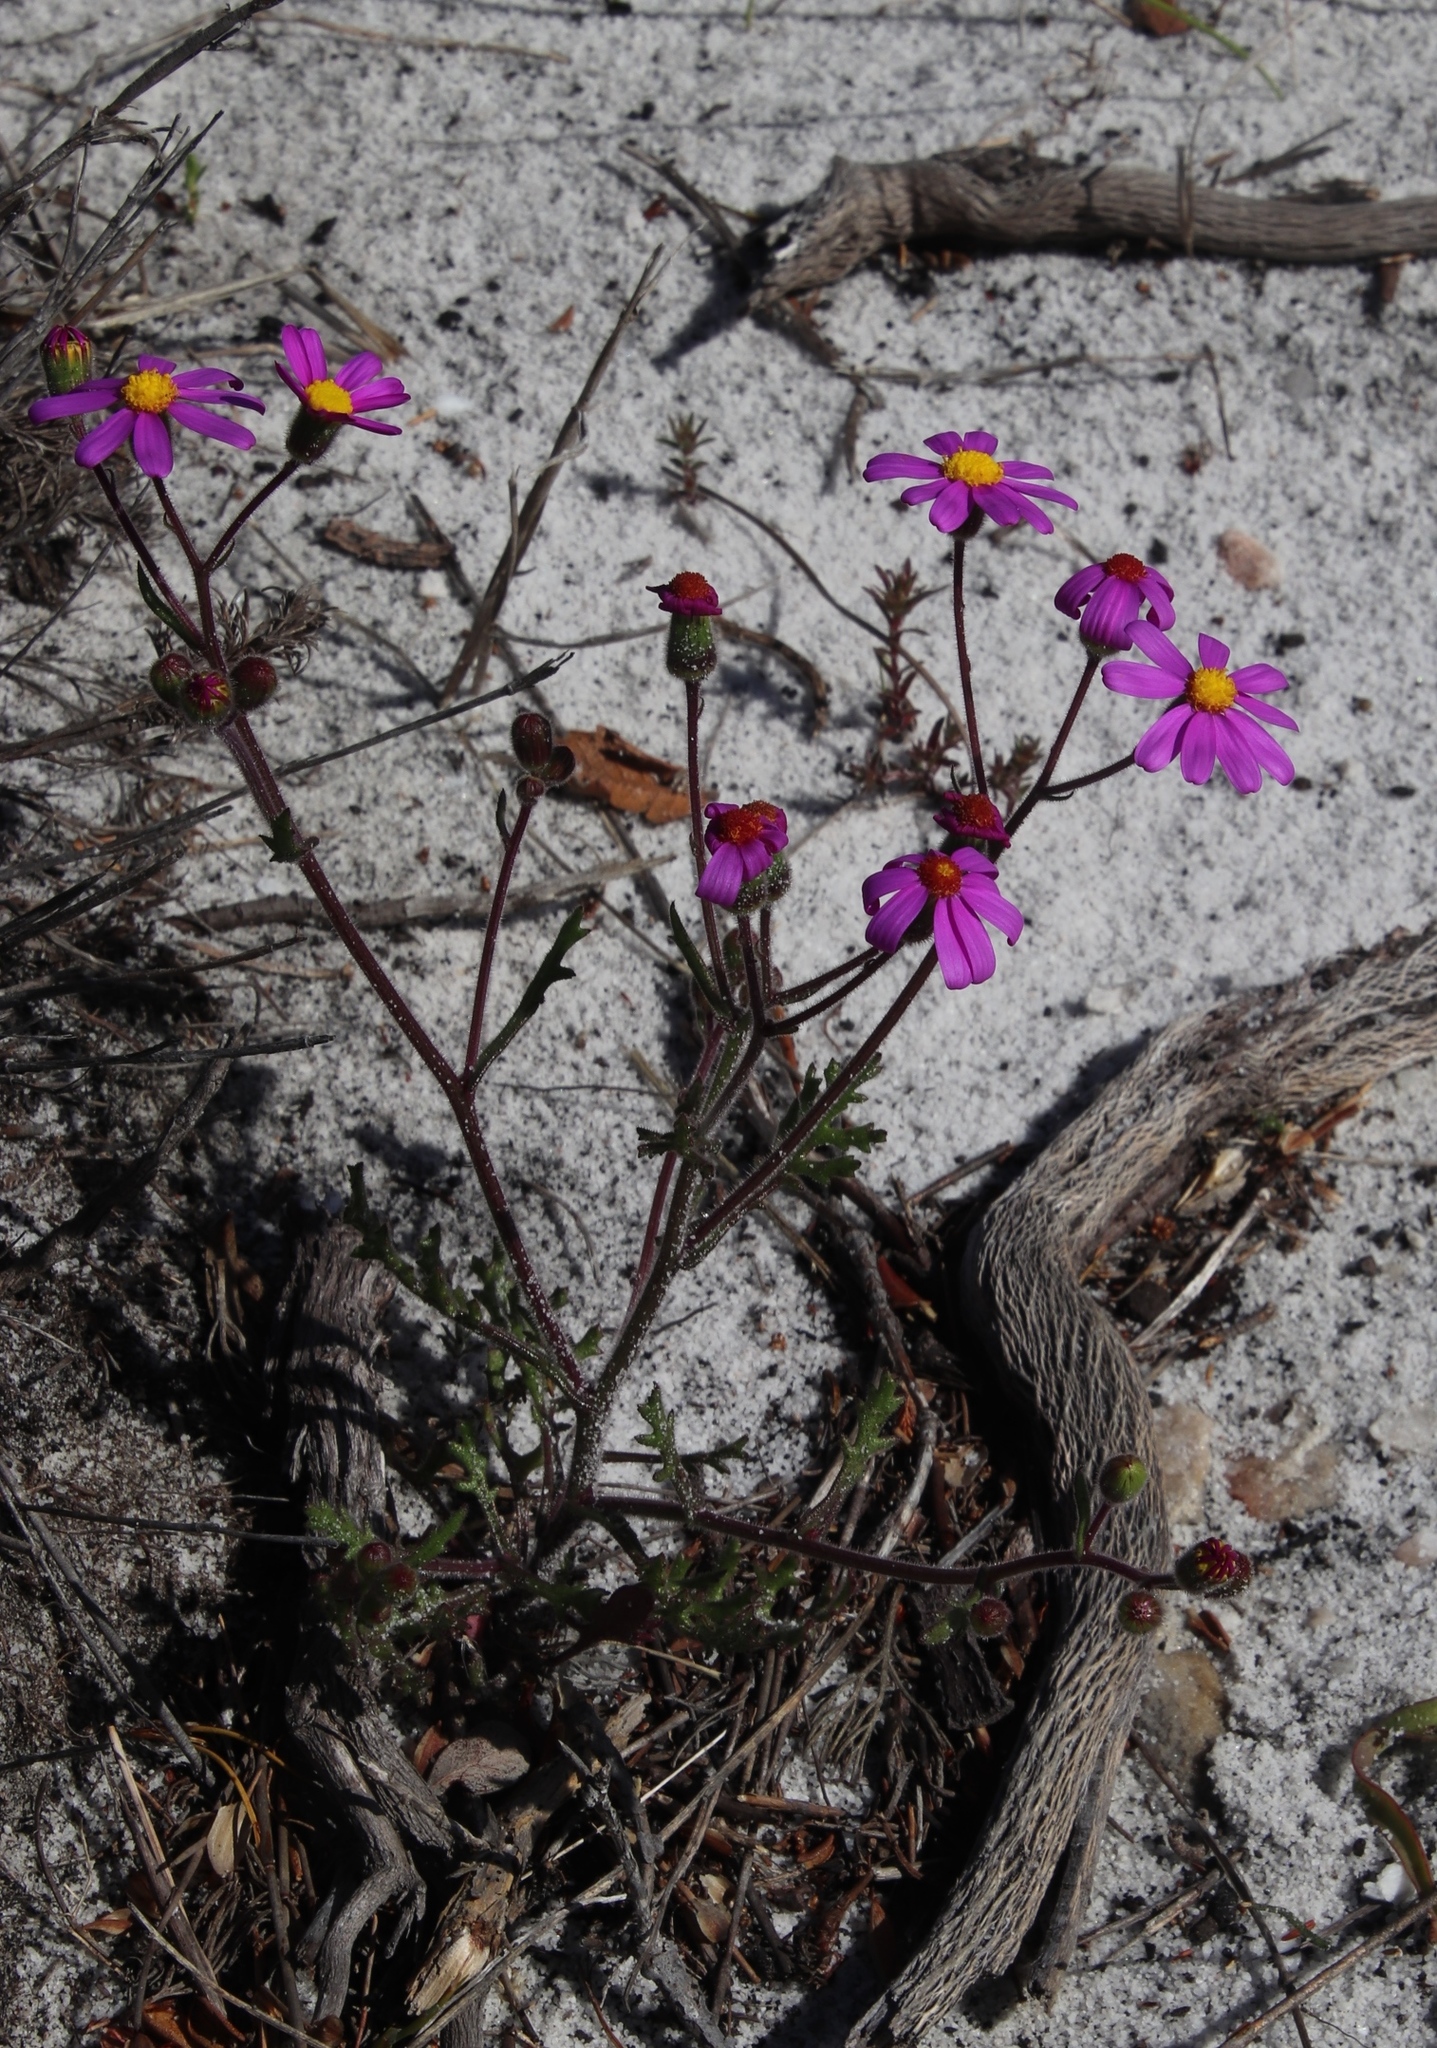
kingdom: Plantae
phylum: Tracheophyta
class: Magnoliopsida
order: Asterales
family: Asteraceae
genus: Senecio
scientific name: Senecio arenarius
